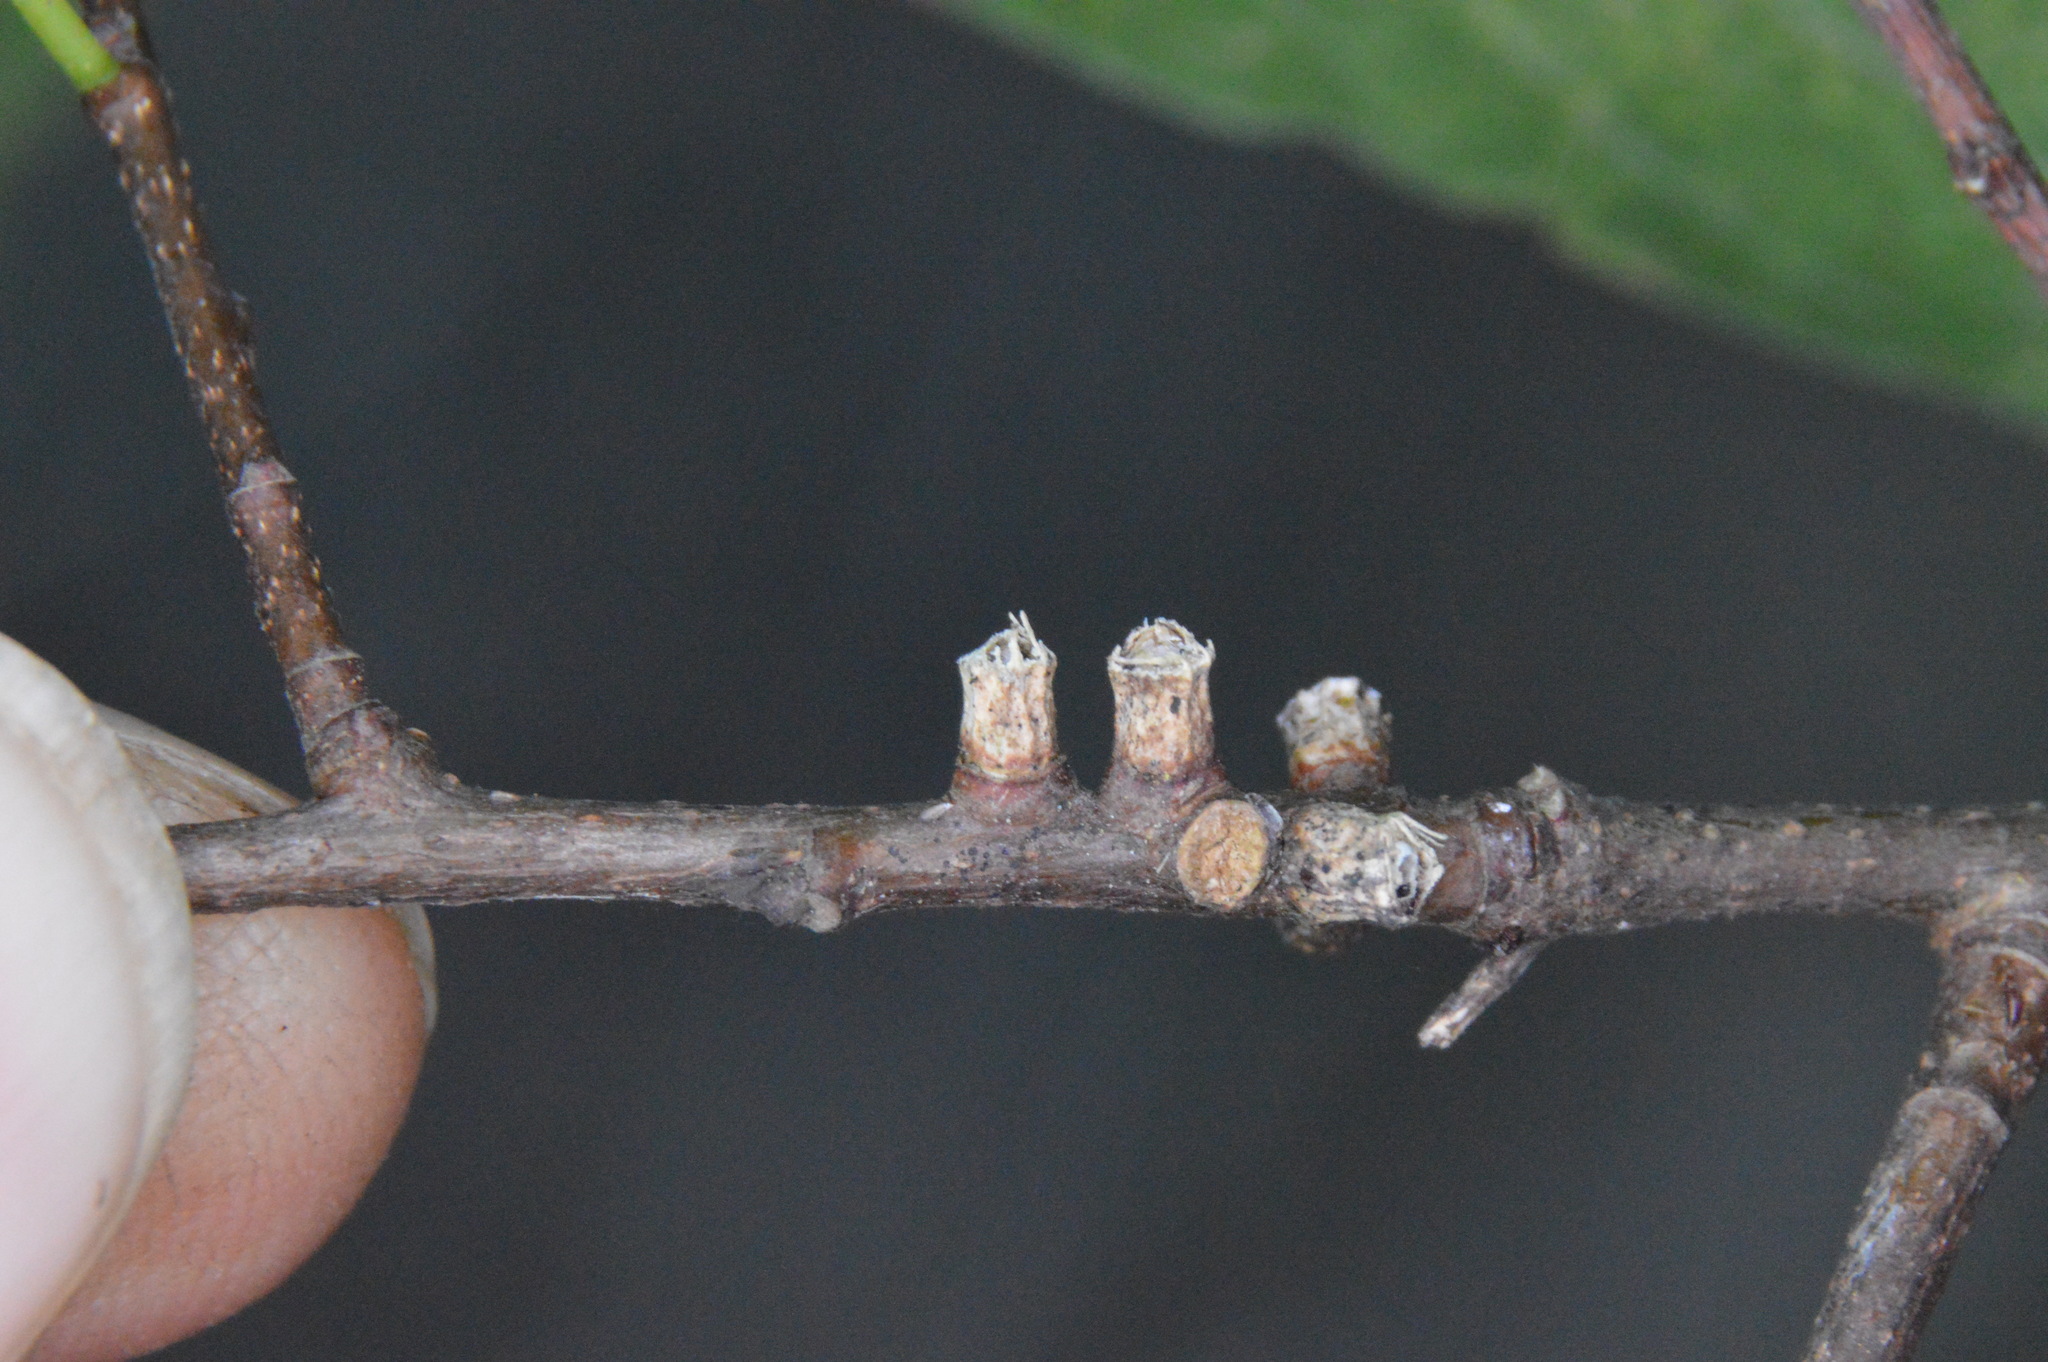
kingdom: Animalia
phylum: Arthropoda
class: Insecta
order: Diptera
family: Cecidomyiidae
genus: Celticecis
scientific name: Celticecis ramicola
